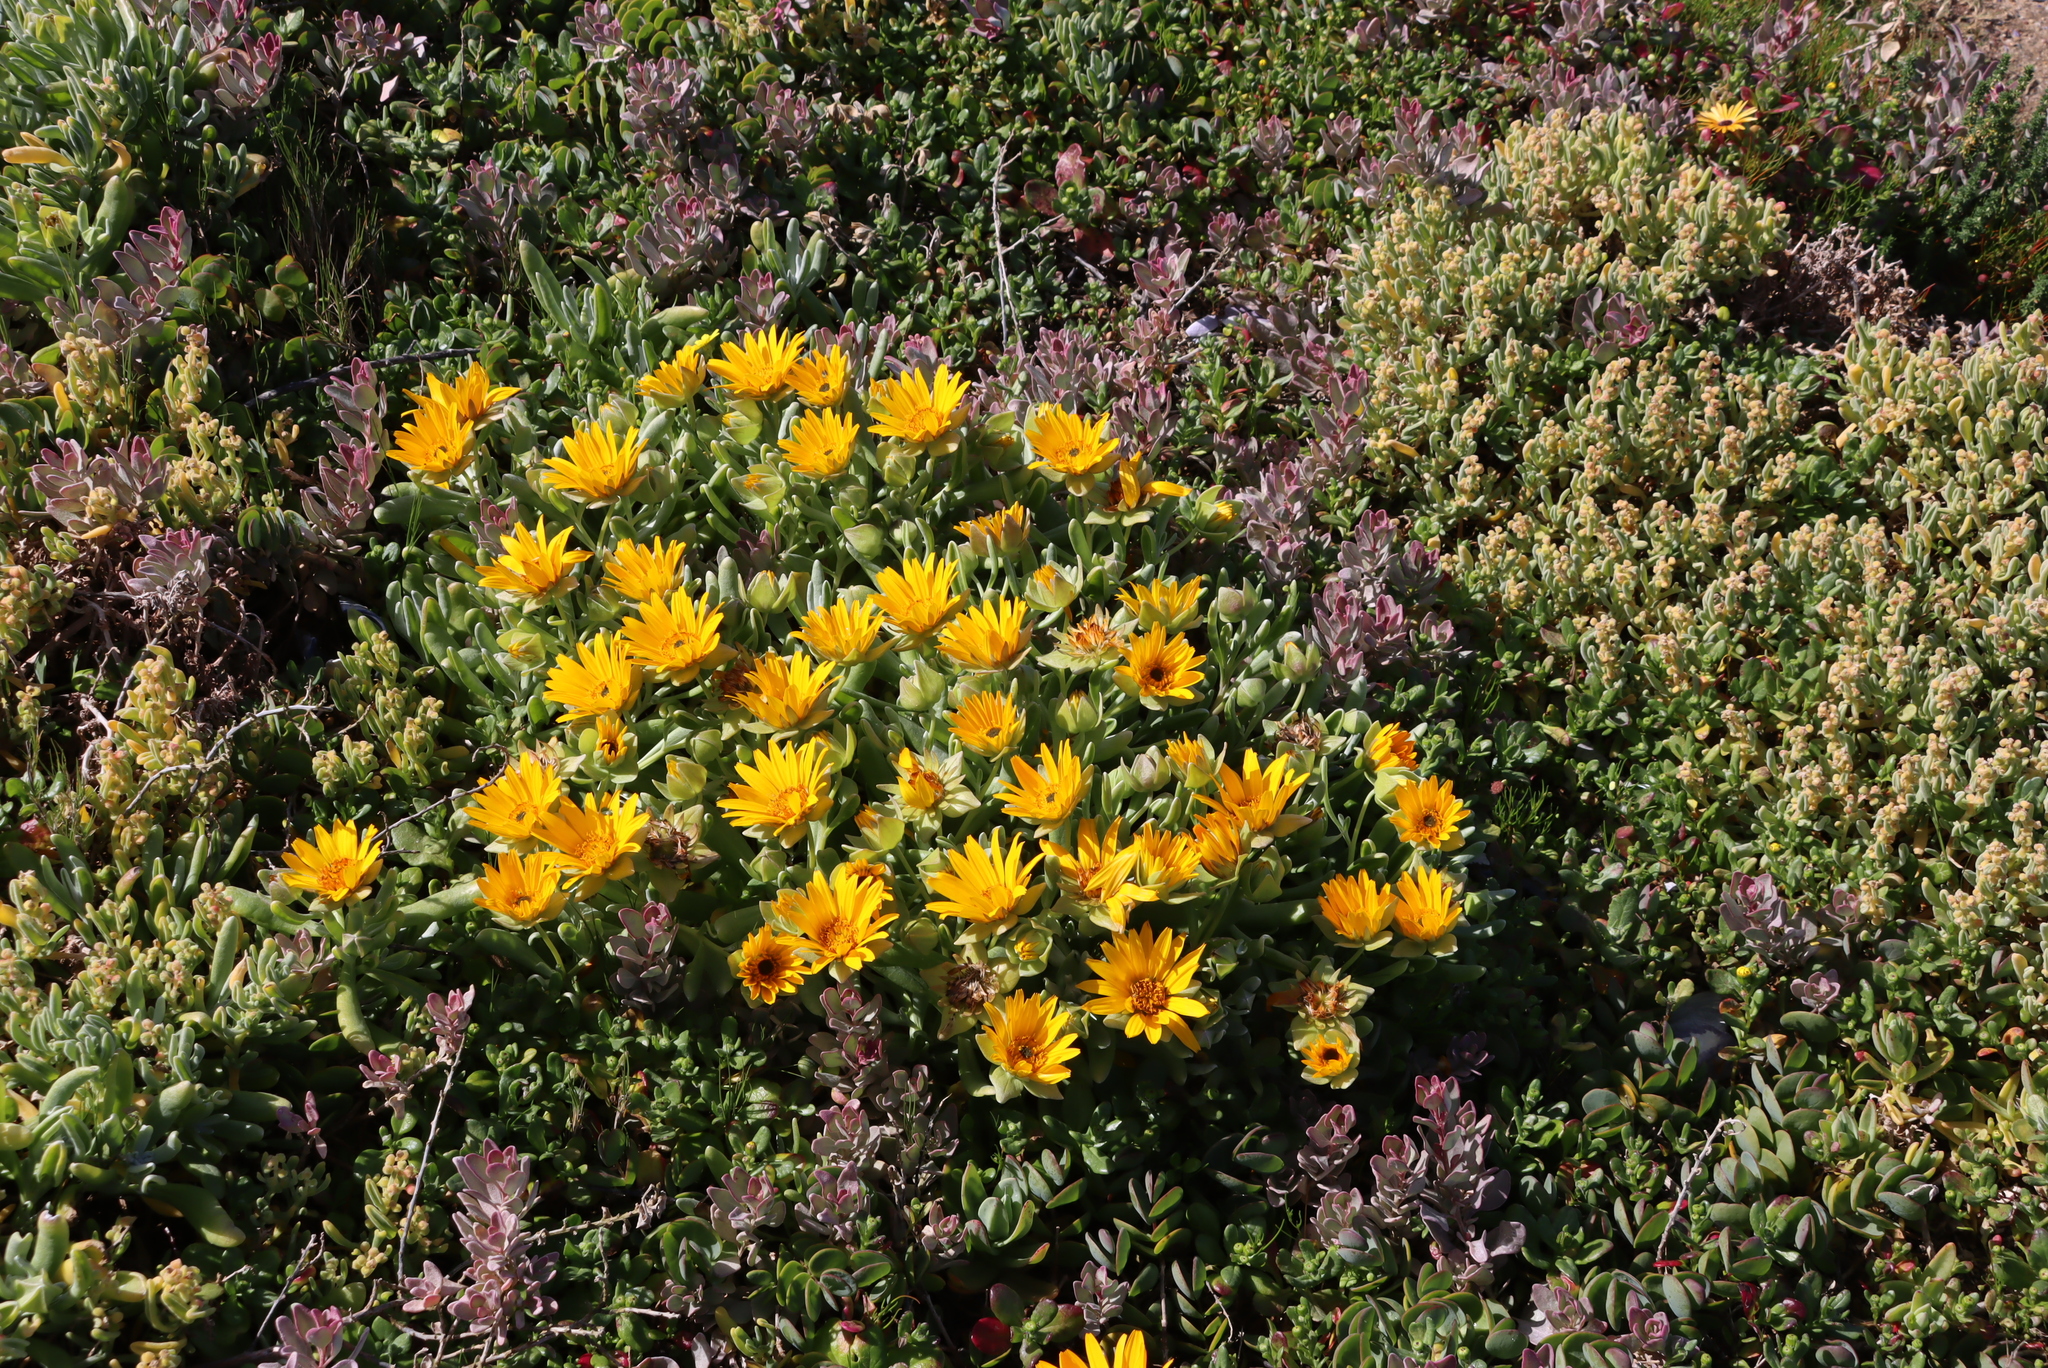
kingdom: Plantae
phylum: Tracheophyta
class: Magnoliopsida
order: Asterales
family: Asteraceae
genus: Didelta
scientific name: Didelta carnosa
